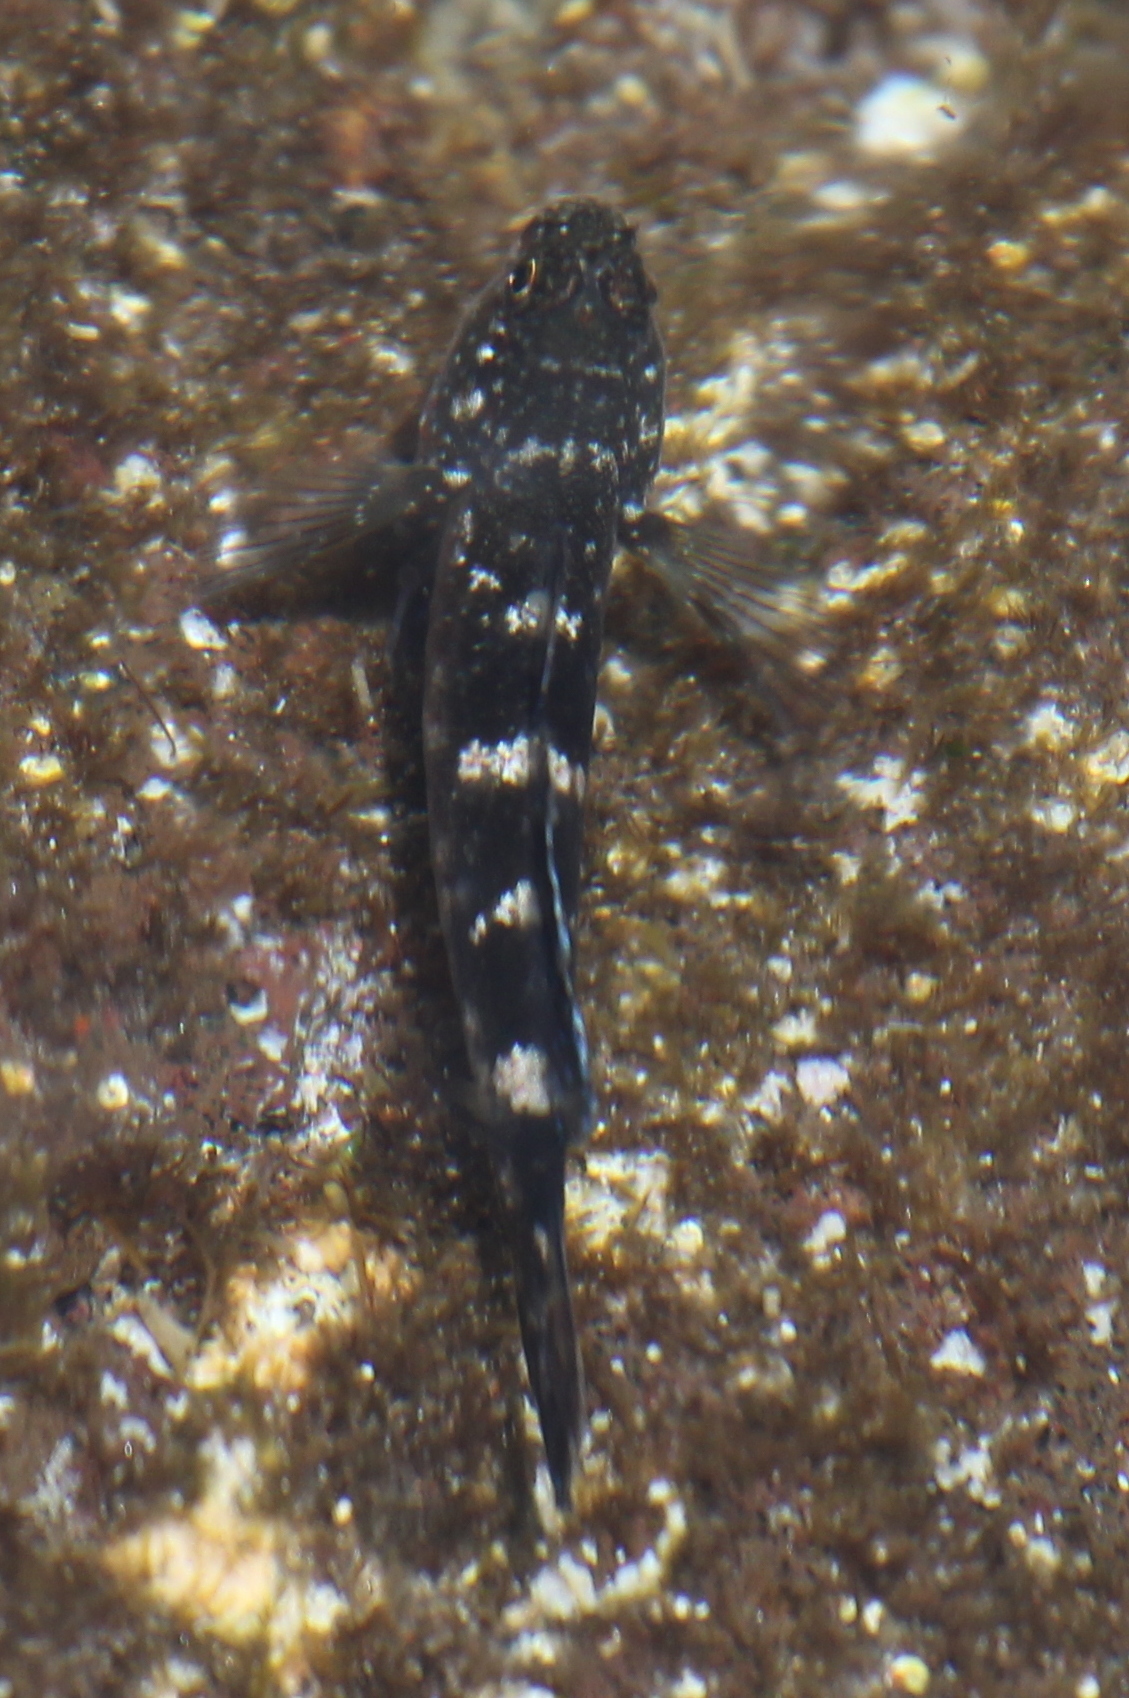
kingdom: Animalia
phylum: Chordata
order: Perciformes
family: Gobiidae
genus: Mauligobius
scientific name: Mauligobius maderensis
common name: Rock goby
